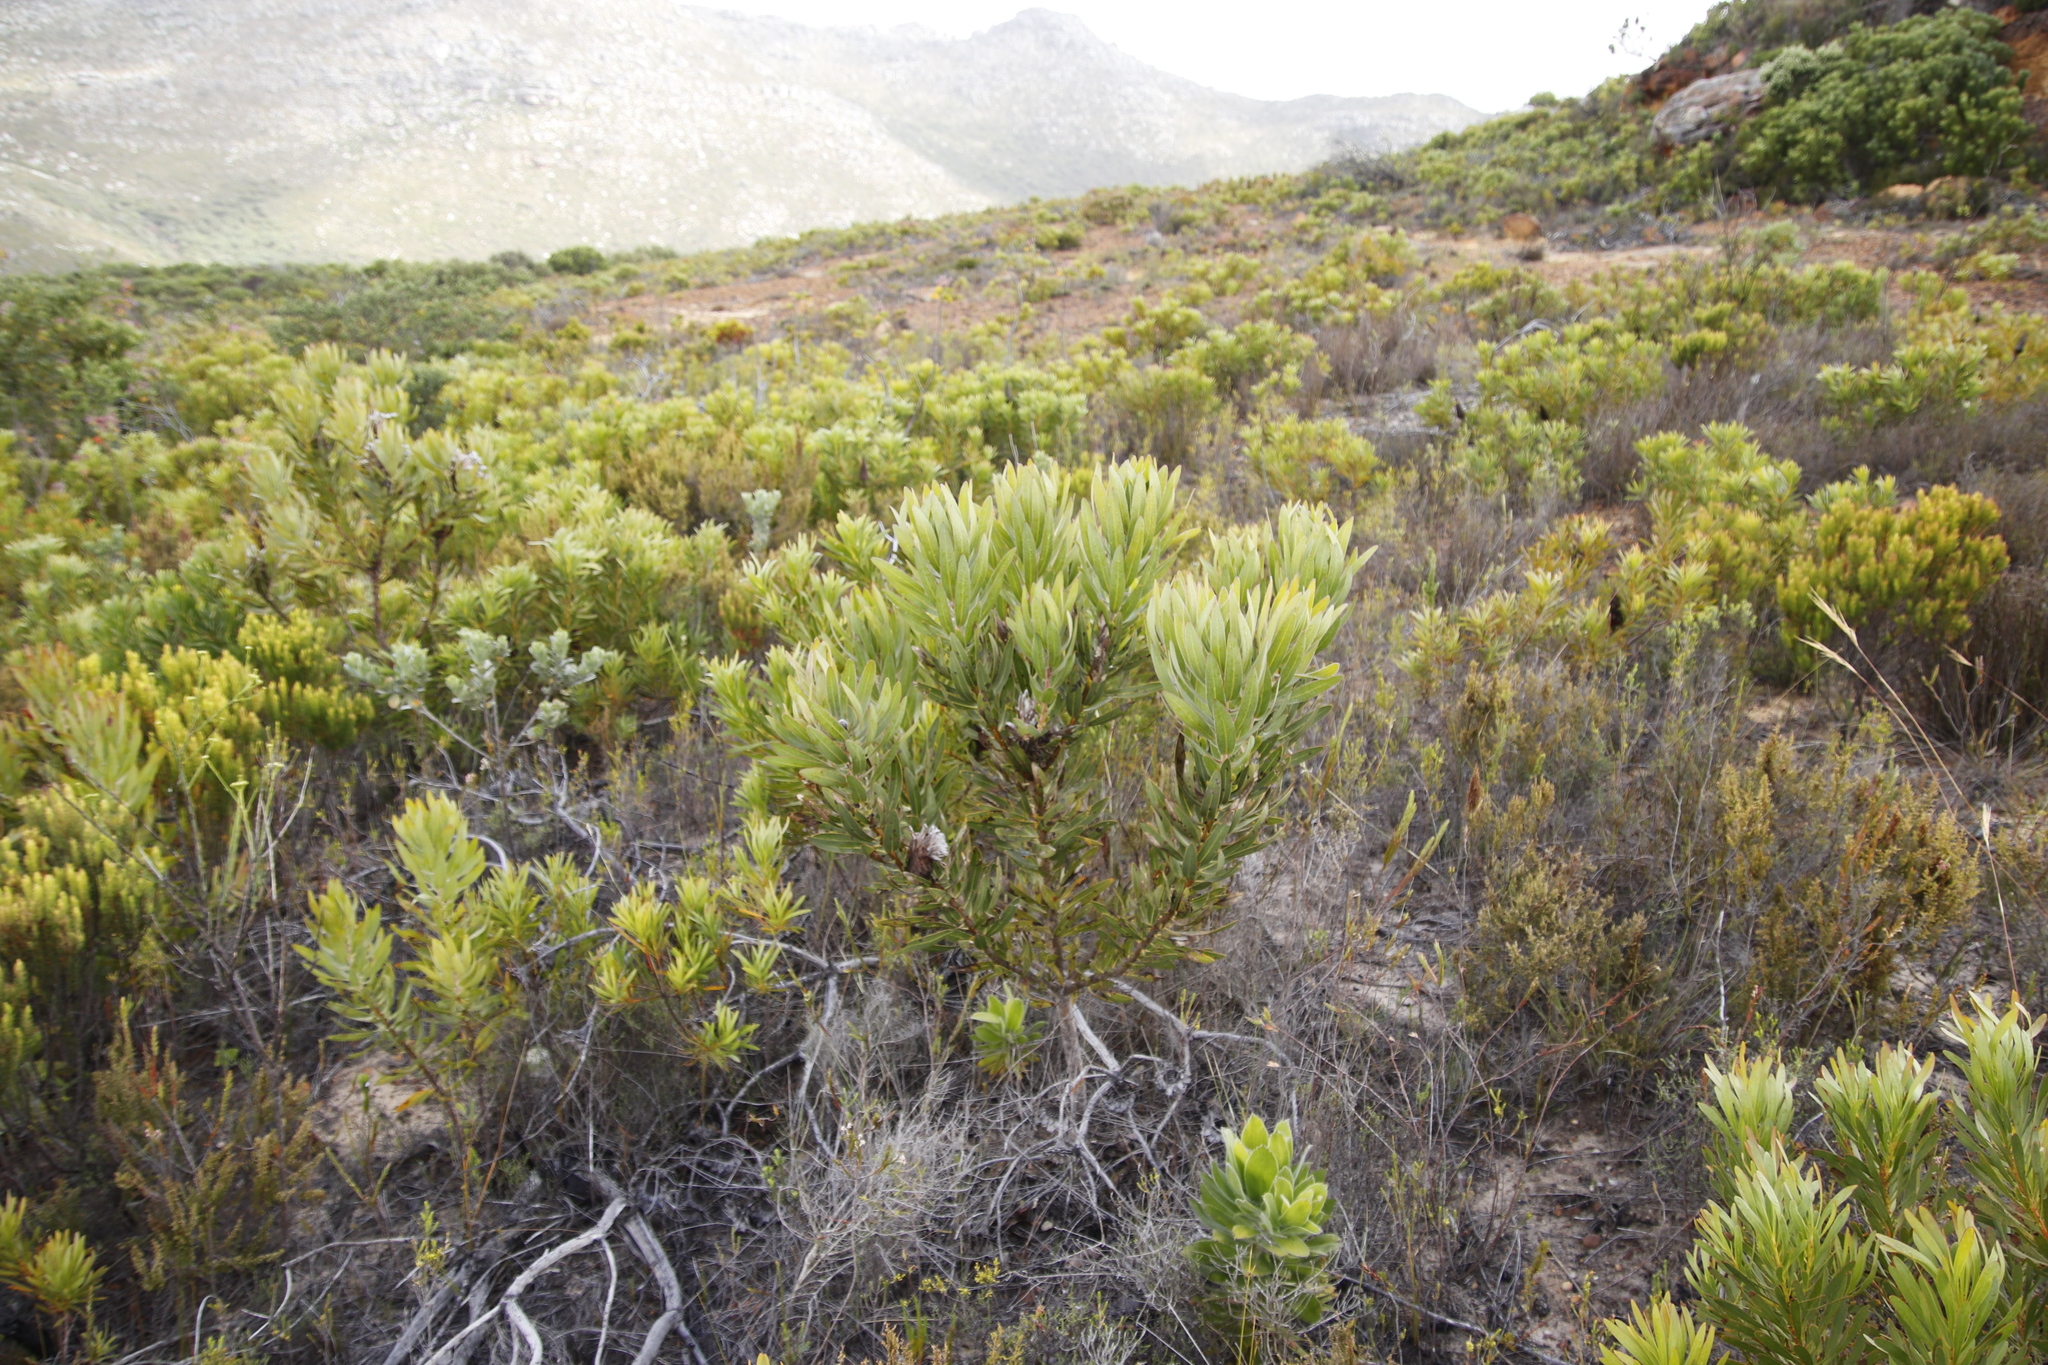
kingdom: Plantae
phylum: Tracheophyta
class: Magnoliopsida
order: Proteales
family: Proteaceae
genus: Protea
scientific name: Protea
